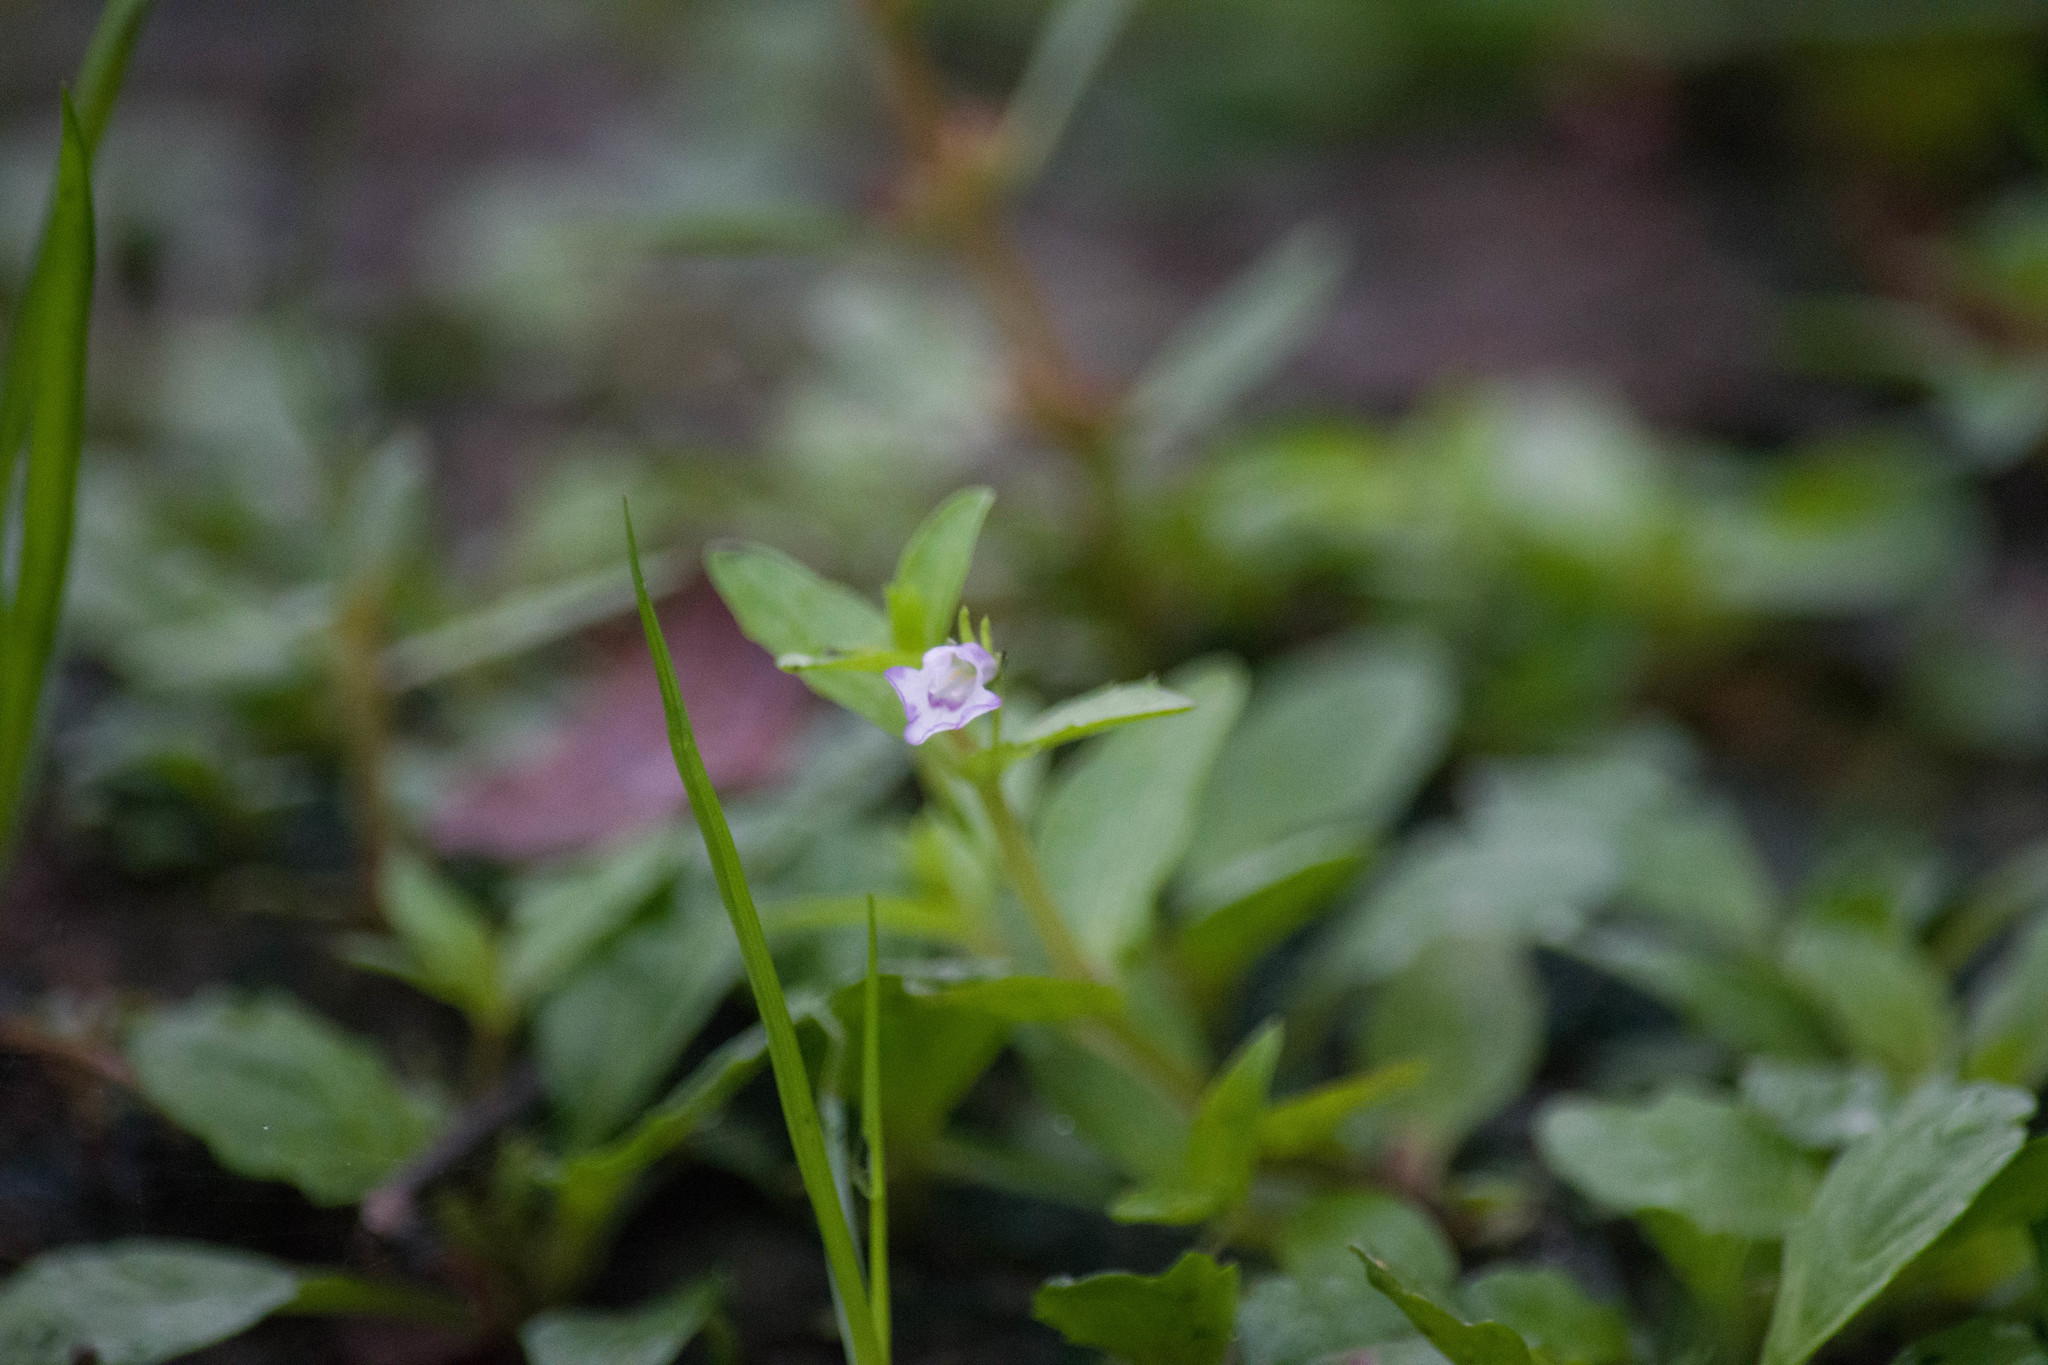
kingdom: Plantae
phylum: Tracheophyta
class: Magnoliopsida
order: Lamiales
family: Linderniaceae
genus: Lindernia
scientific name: Lindernia dubia
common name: Annual false pimpernel
